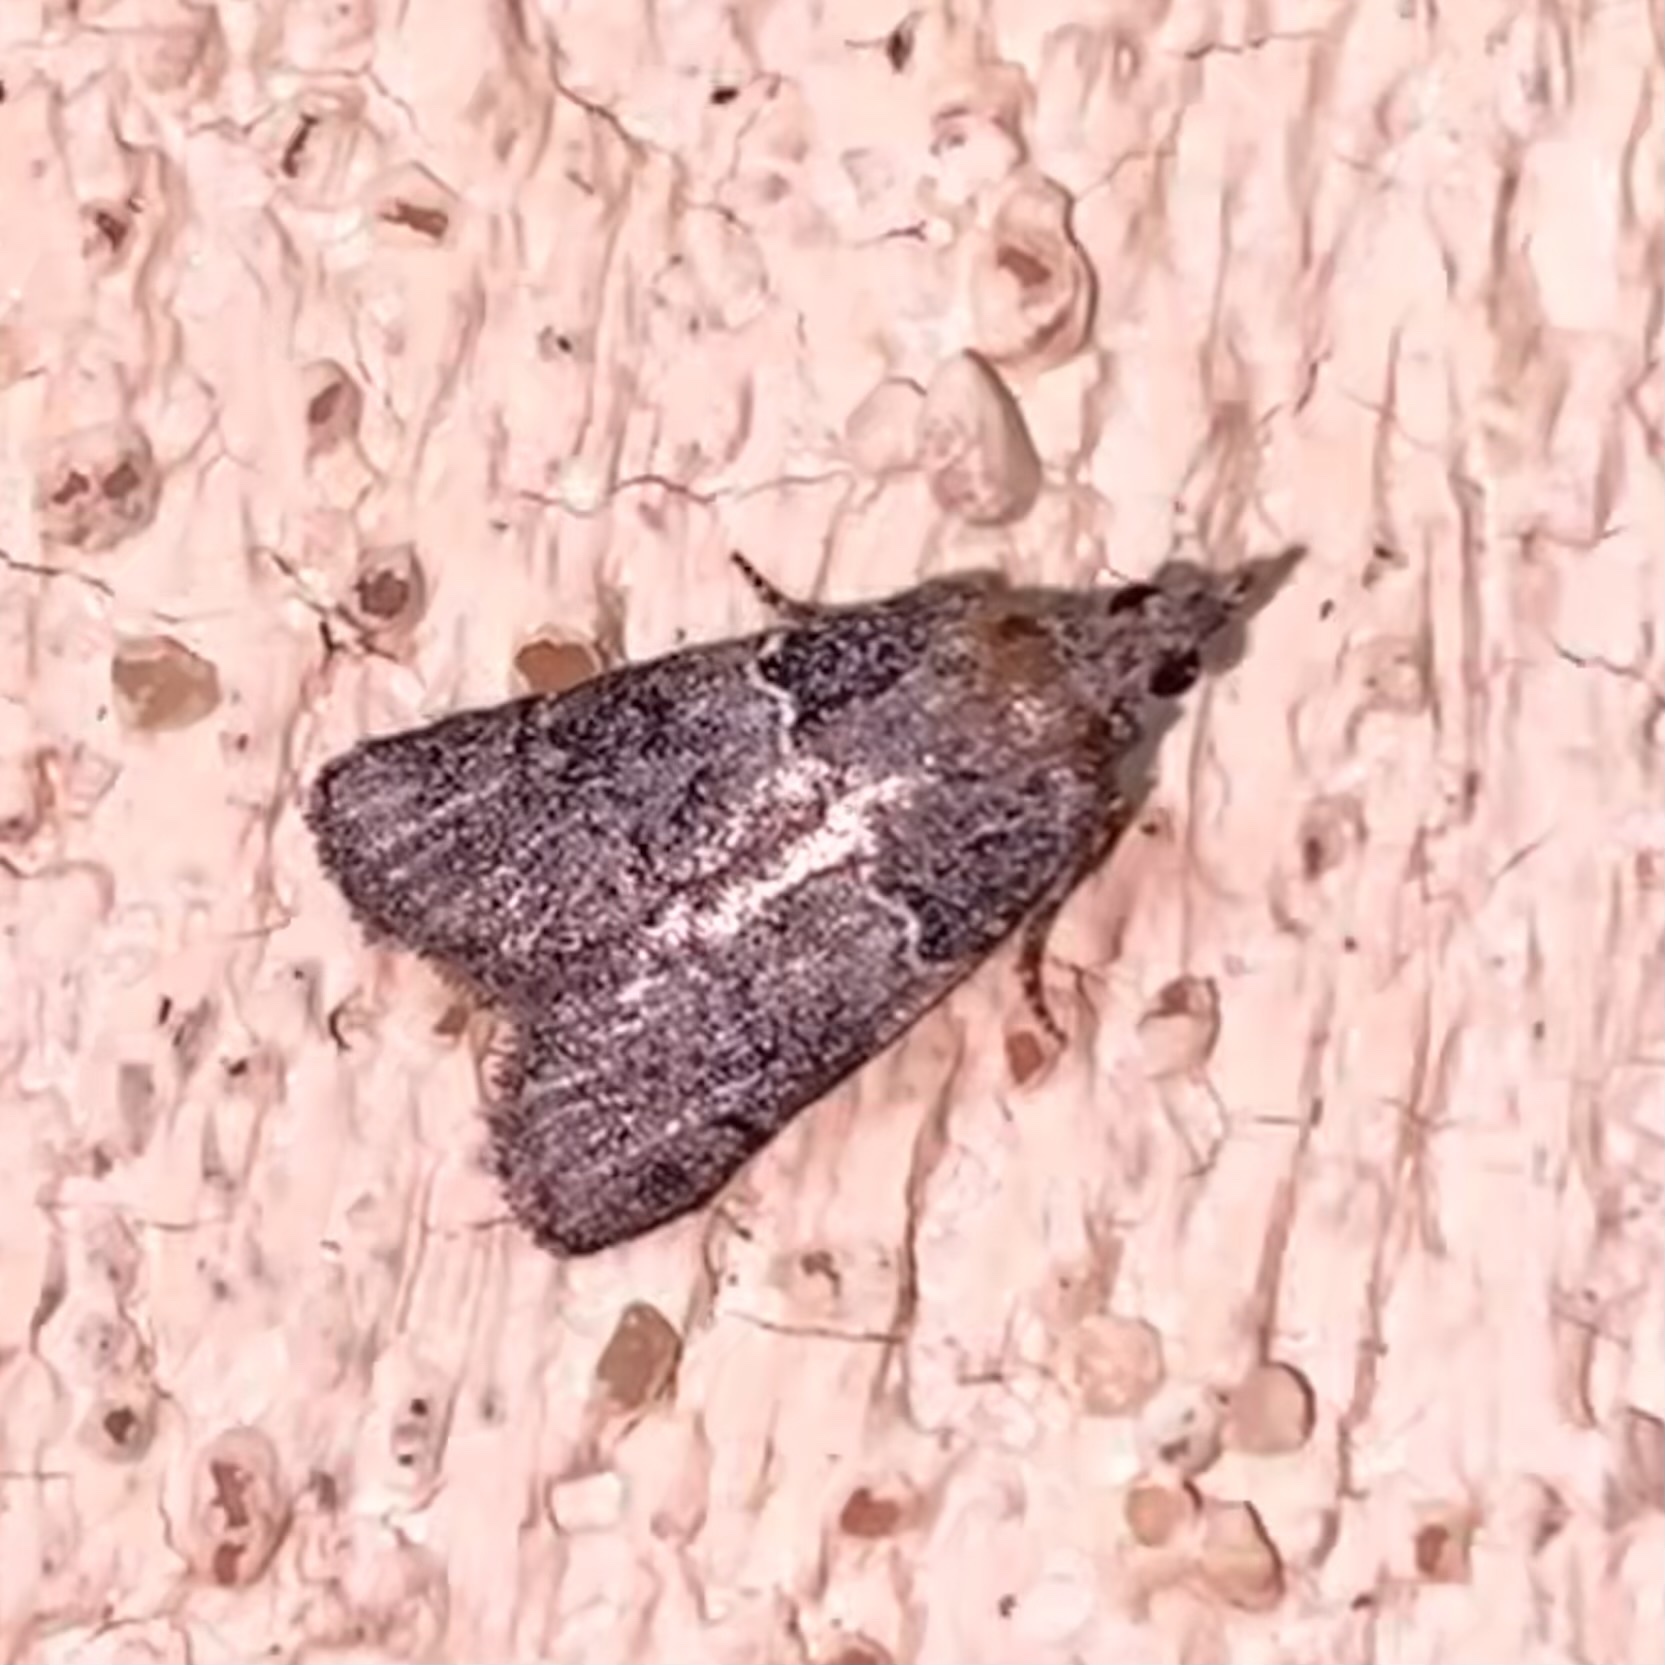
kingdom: Animalia
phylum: Arthropoda
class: Insecta
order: Lepidoptera
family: Pyralidae
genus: Satole
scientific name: Satole ligniperdalis
